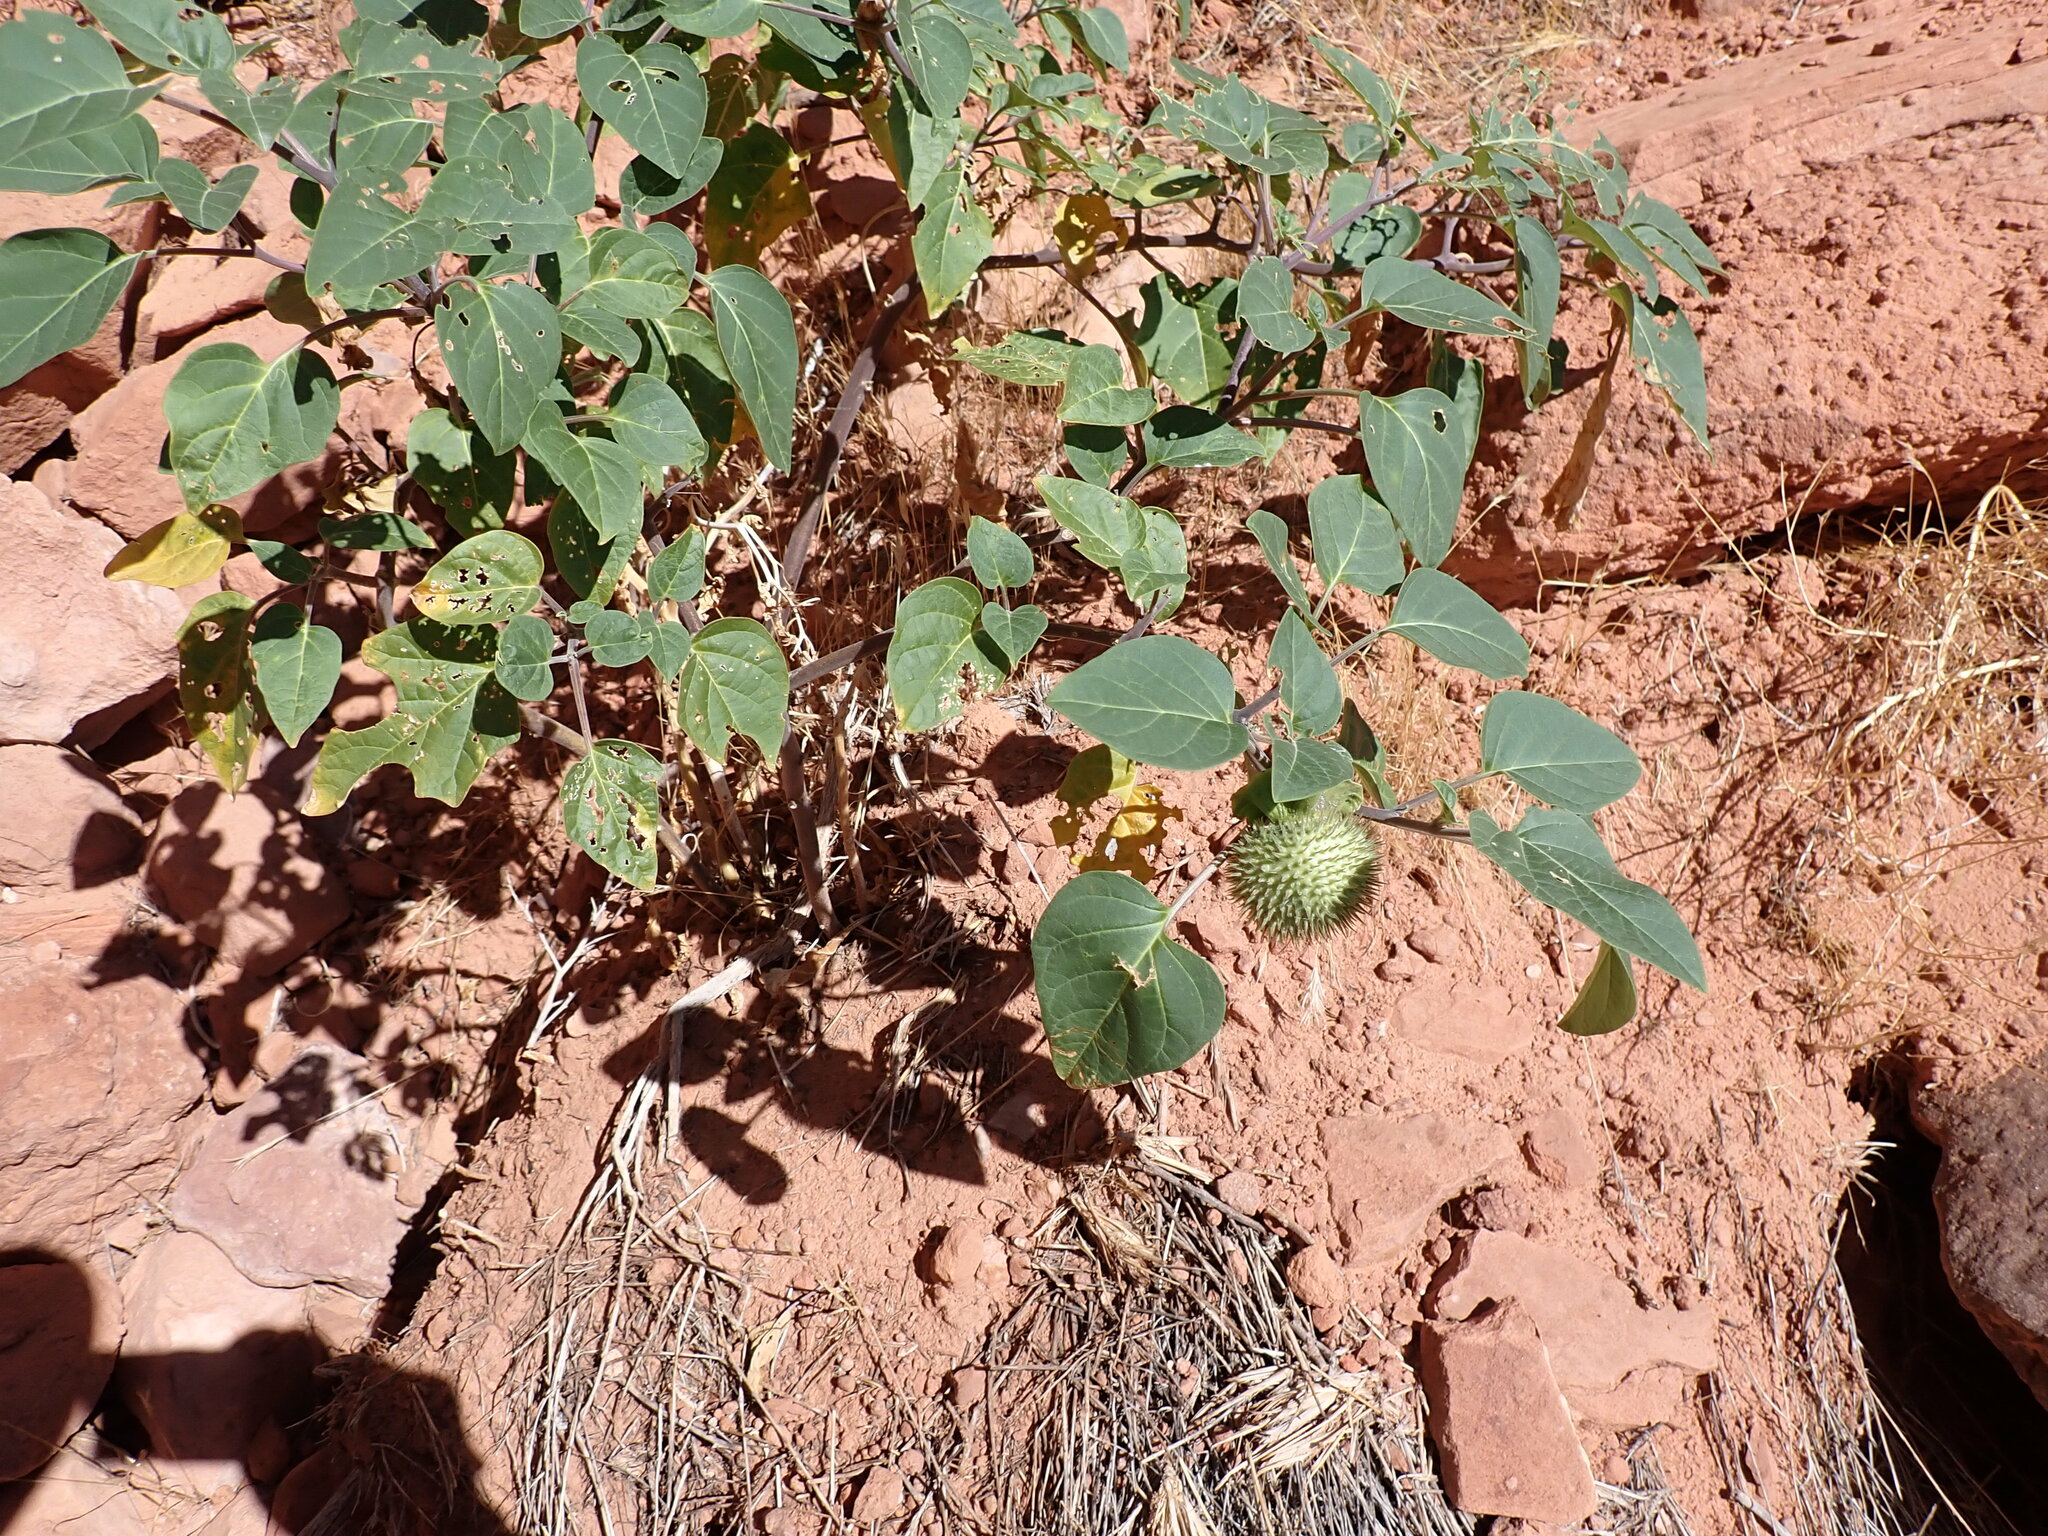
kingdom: Plantae
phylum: Tracheophyta
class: Magnoliopsida
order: Solanales
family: Solanaceae
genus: Datura
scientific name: Datura wrightii
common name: Sacred thorn-apple
